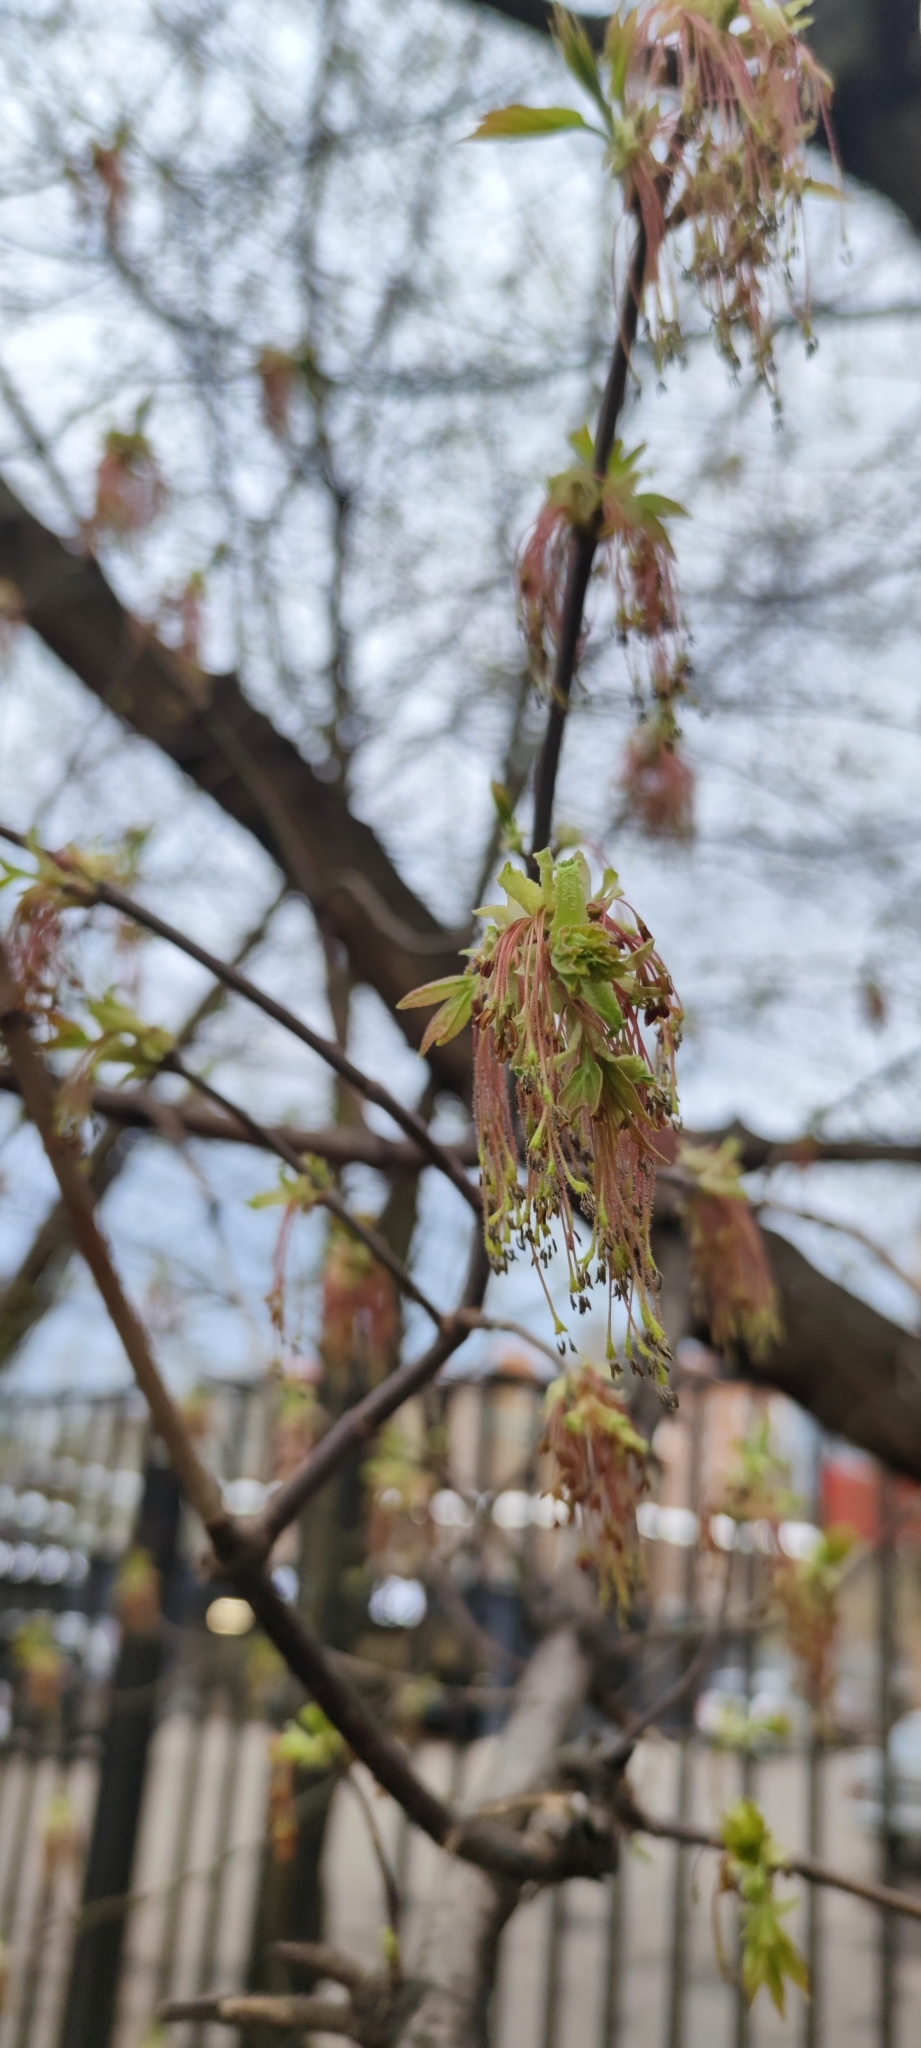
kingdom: Plantae
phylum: Tracheophyta
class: Magnoliopsida
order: Sapindales
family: Sapindaceae
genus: Acer
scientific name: Acer negundo
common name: Ashleaf maple
